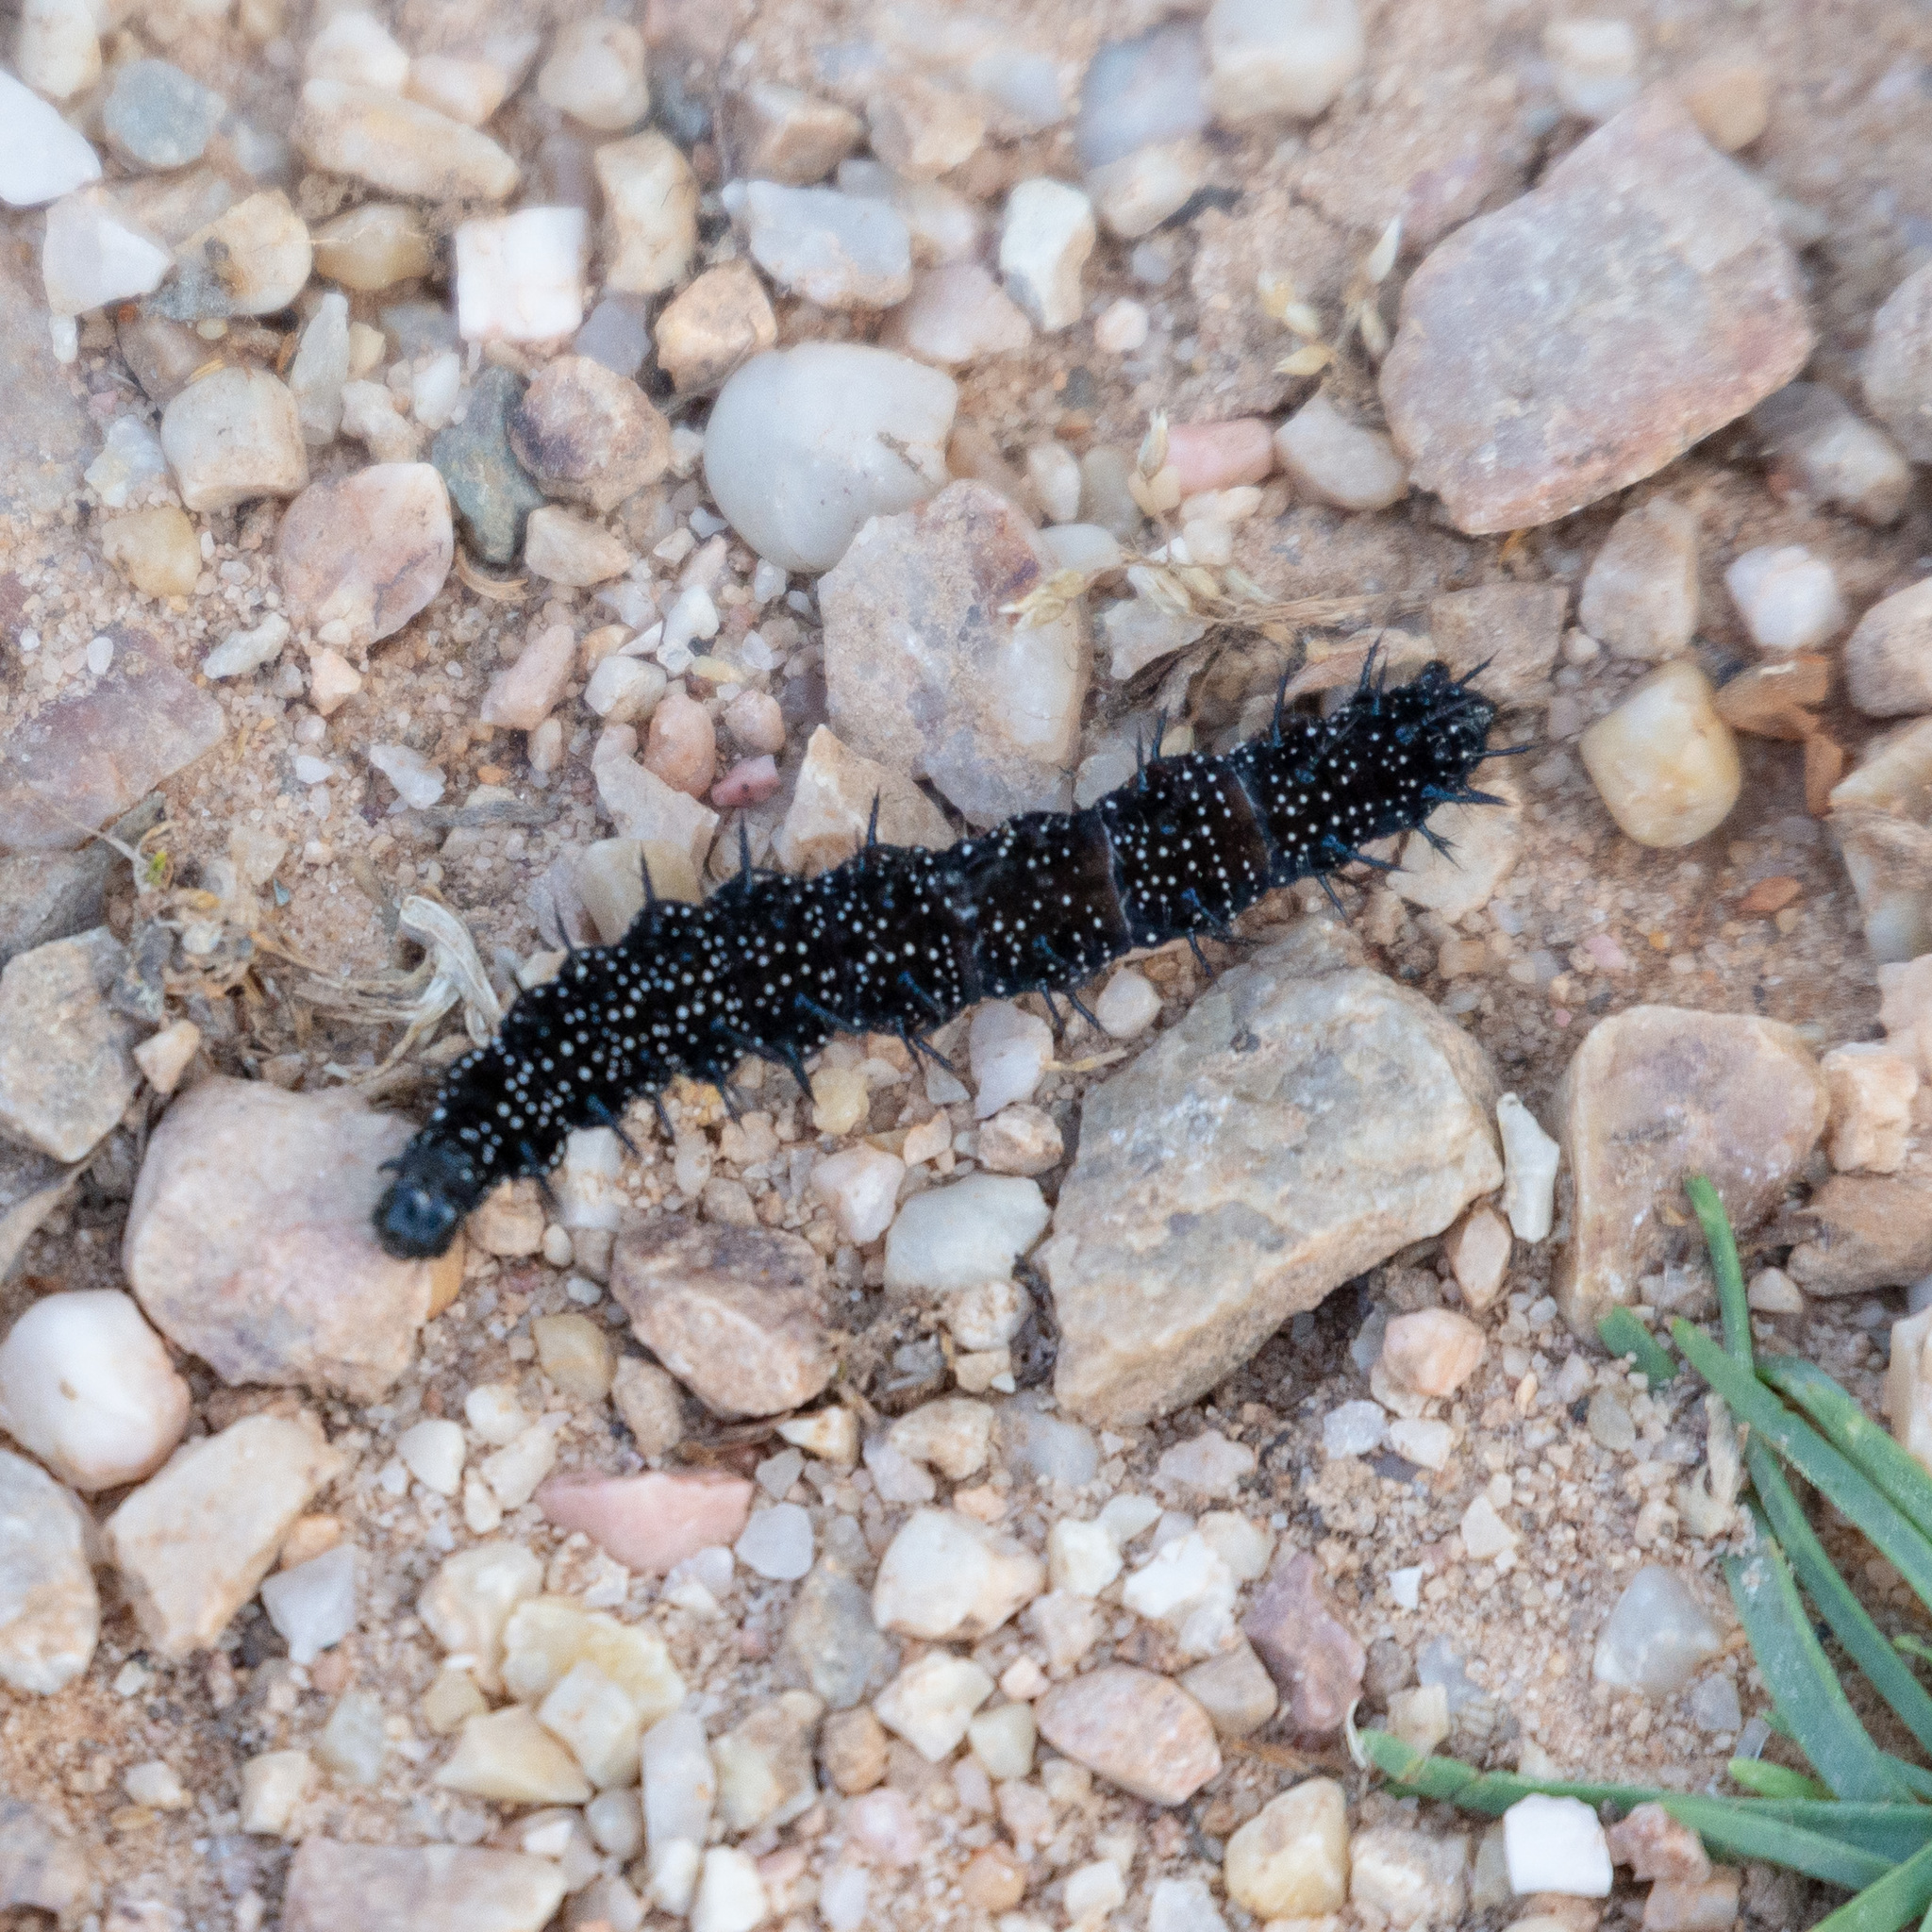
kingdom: Animalia
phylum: Arthropoda
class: Insecta
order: Lepidoptera
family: Nymphalidae
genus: Aglais
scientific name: Aglais io
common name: Peacock
